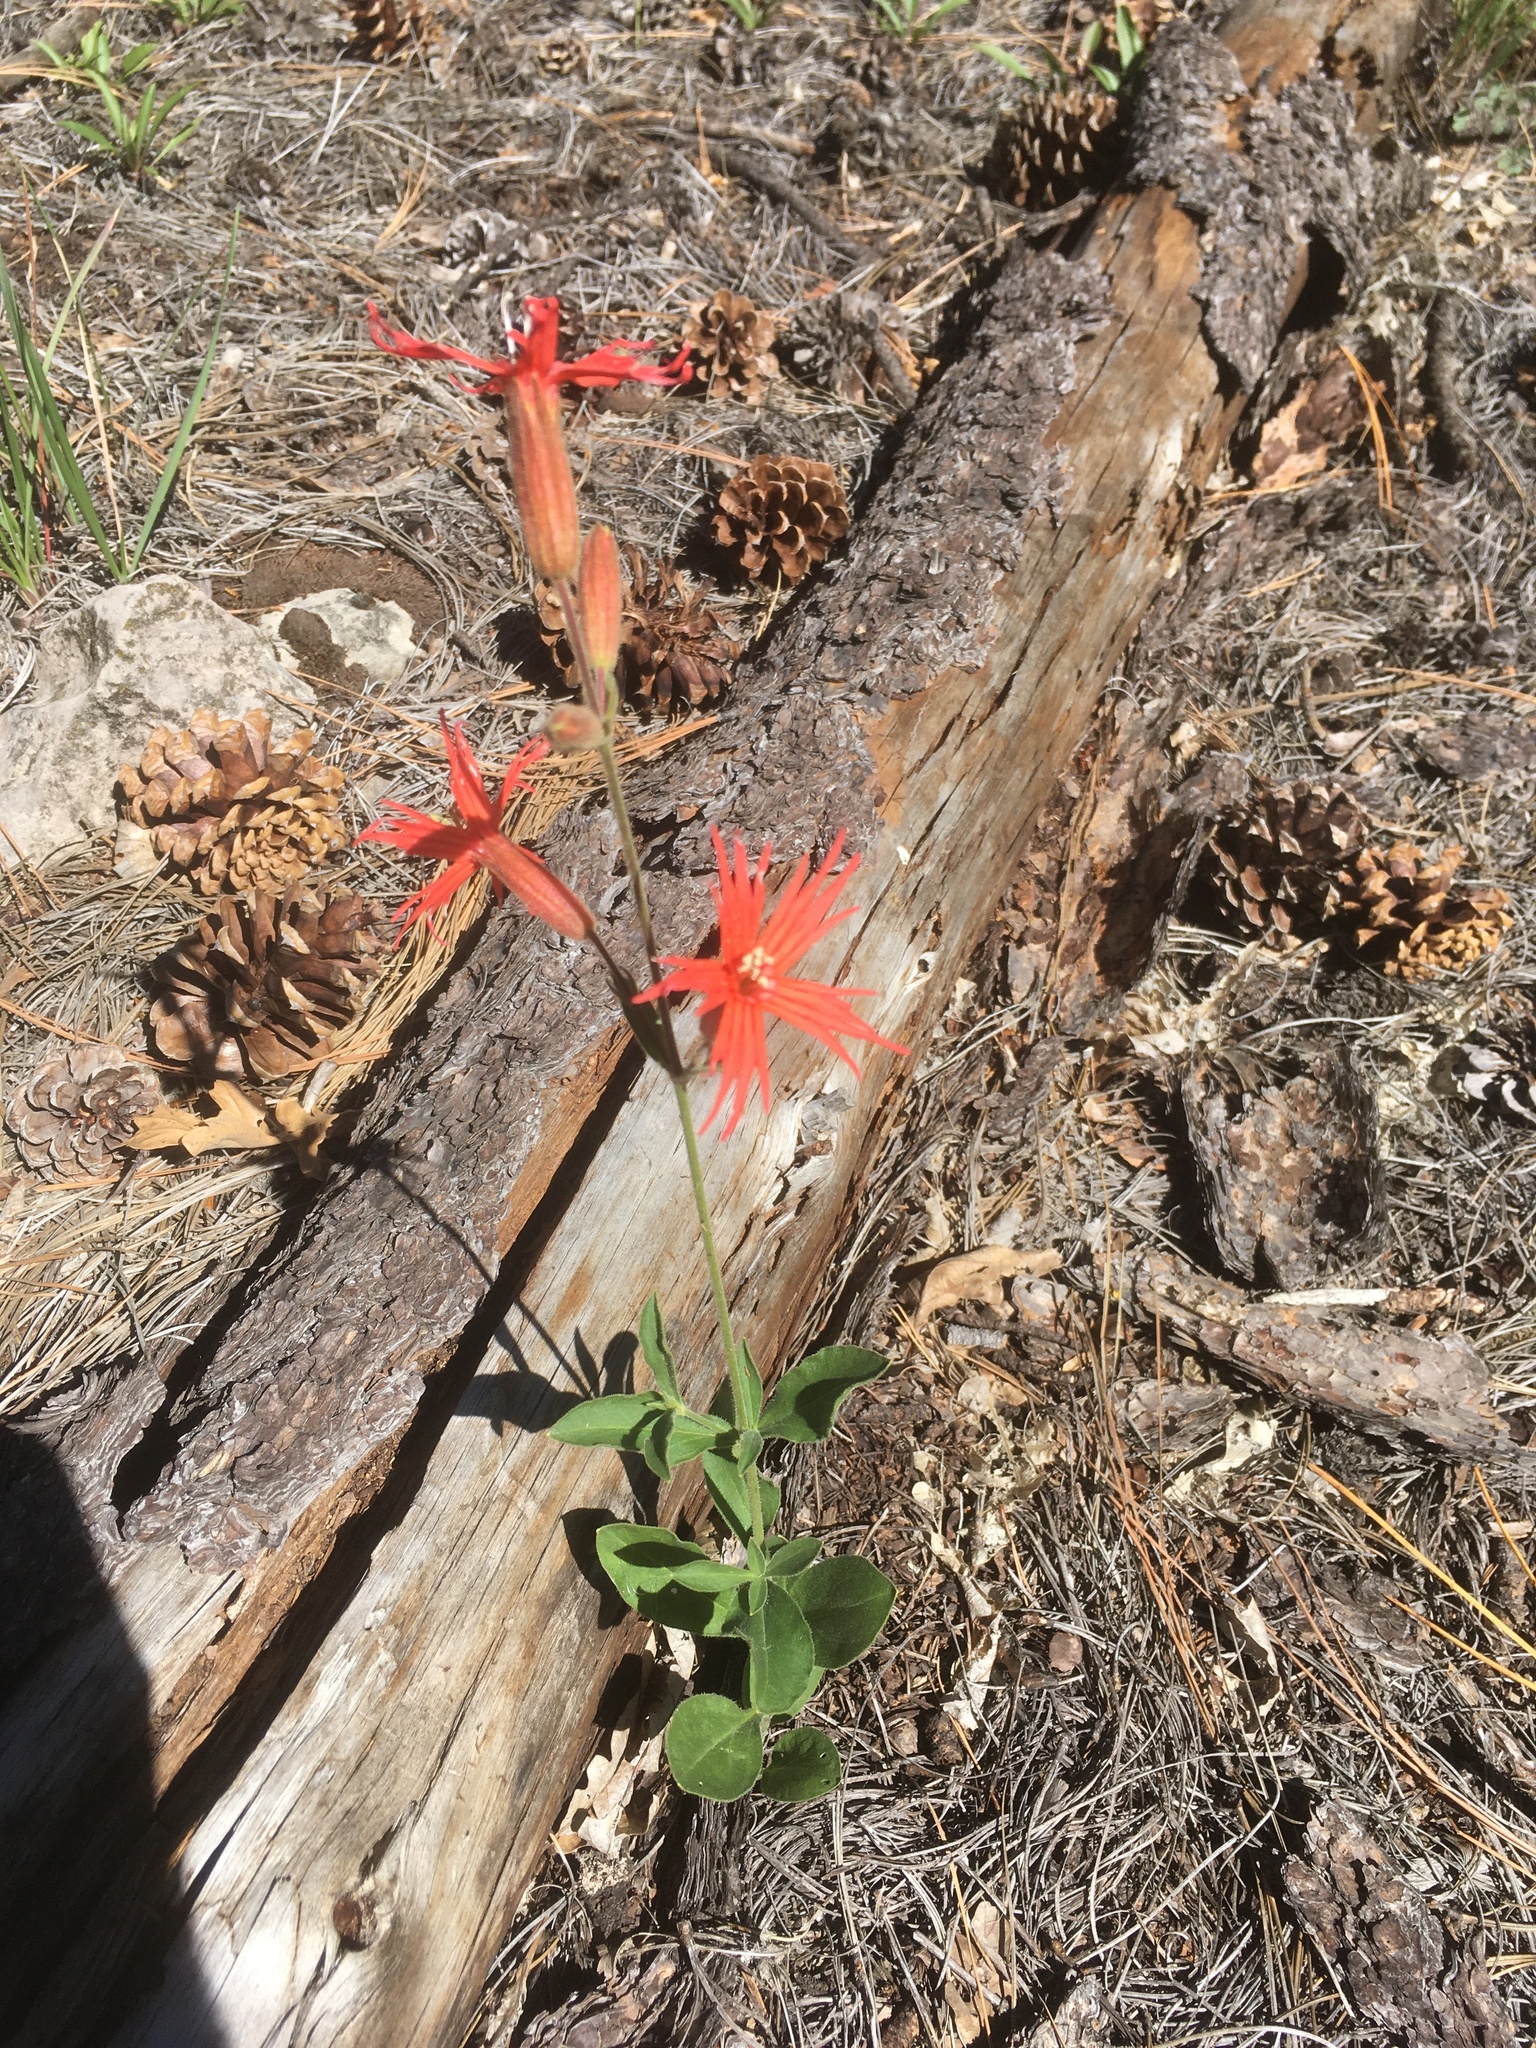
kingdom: Plantae
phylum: Tracheophyta
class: Magnoliopsida
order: Caryophyllales
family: Caryophyllaceae
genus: Silene
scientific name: Silene laciniata
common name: Indian-pink
